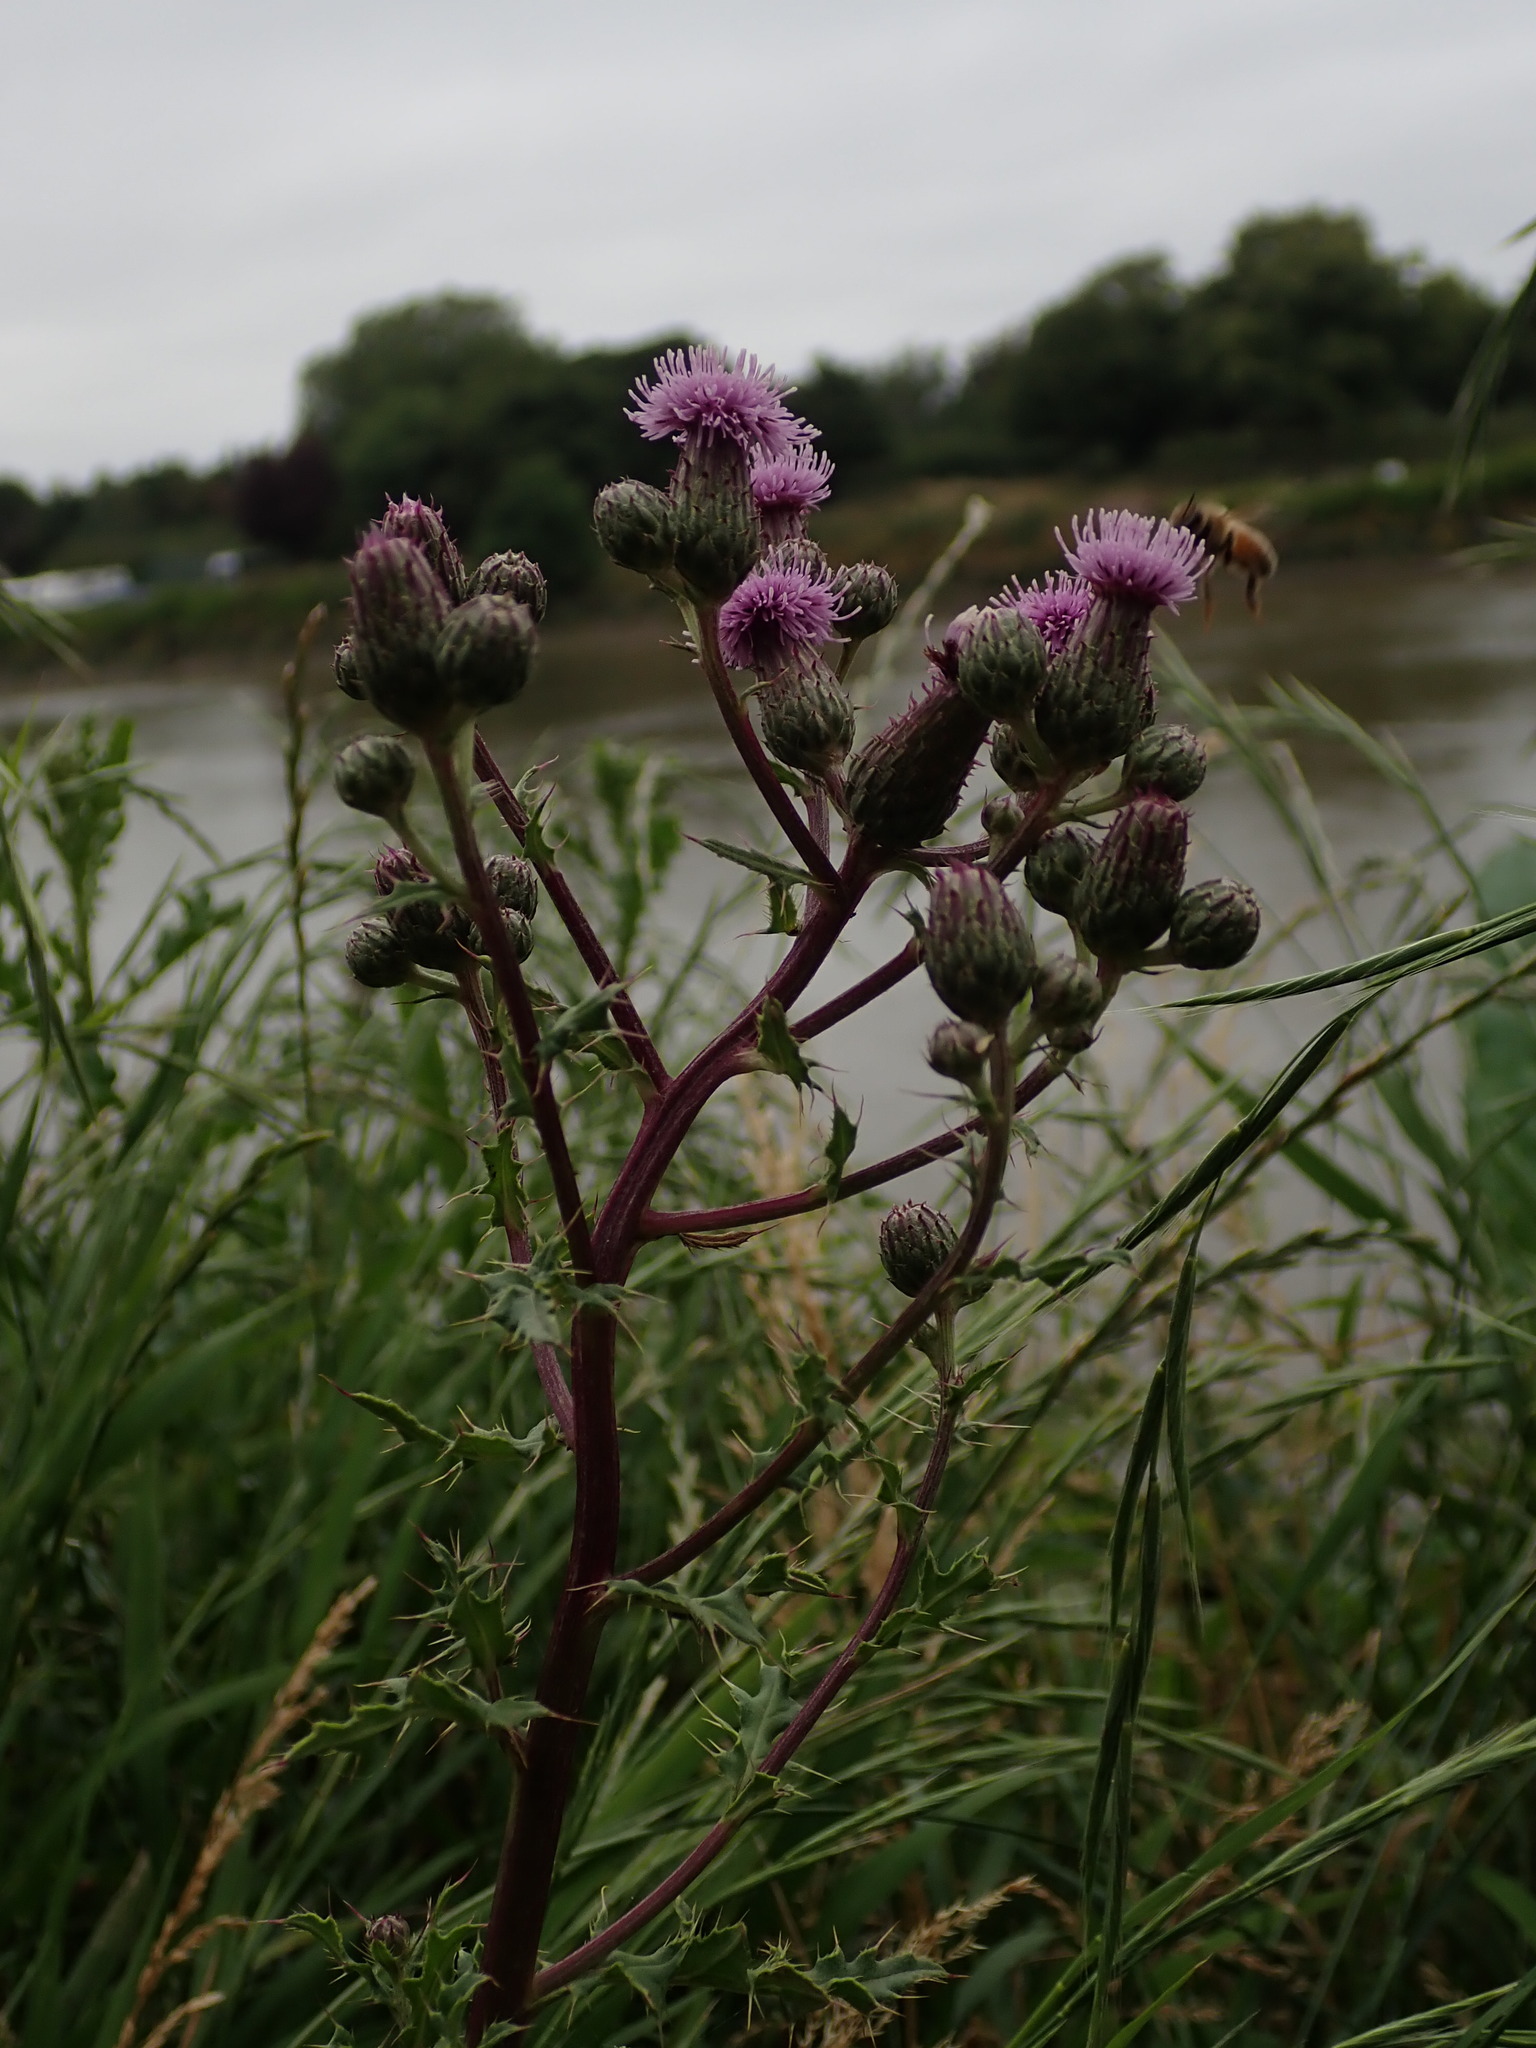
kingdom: Plantae
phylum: Tracheophyta
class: Magnoliopsida
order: Asterales
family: Asteraceae
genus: Cirsium
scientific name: Cirsium arvense
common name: Creeping thistle
